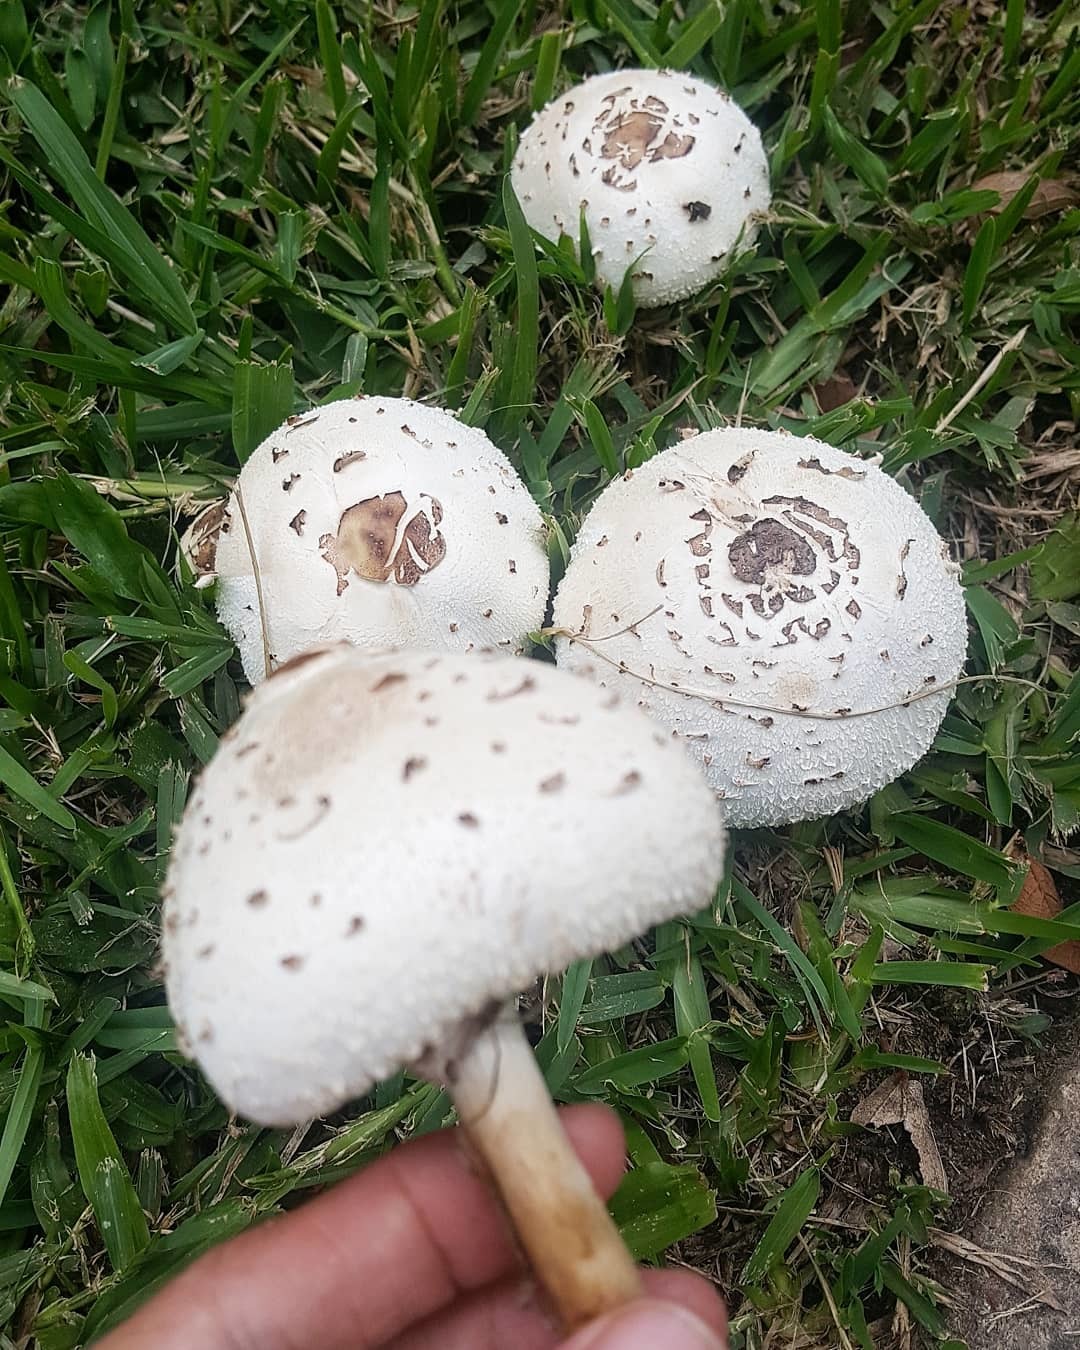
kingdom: Fungi
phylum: Basidiomycota
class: Agaricomycetes
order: Agaricales
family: Agaricaceae
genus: Chlorophyllum
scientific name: Chlorophyllum molybdites
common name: False parasol
